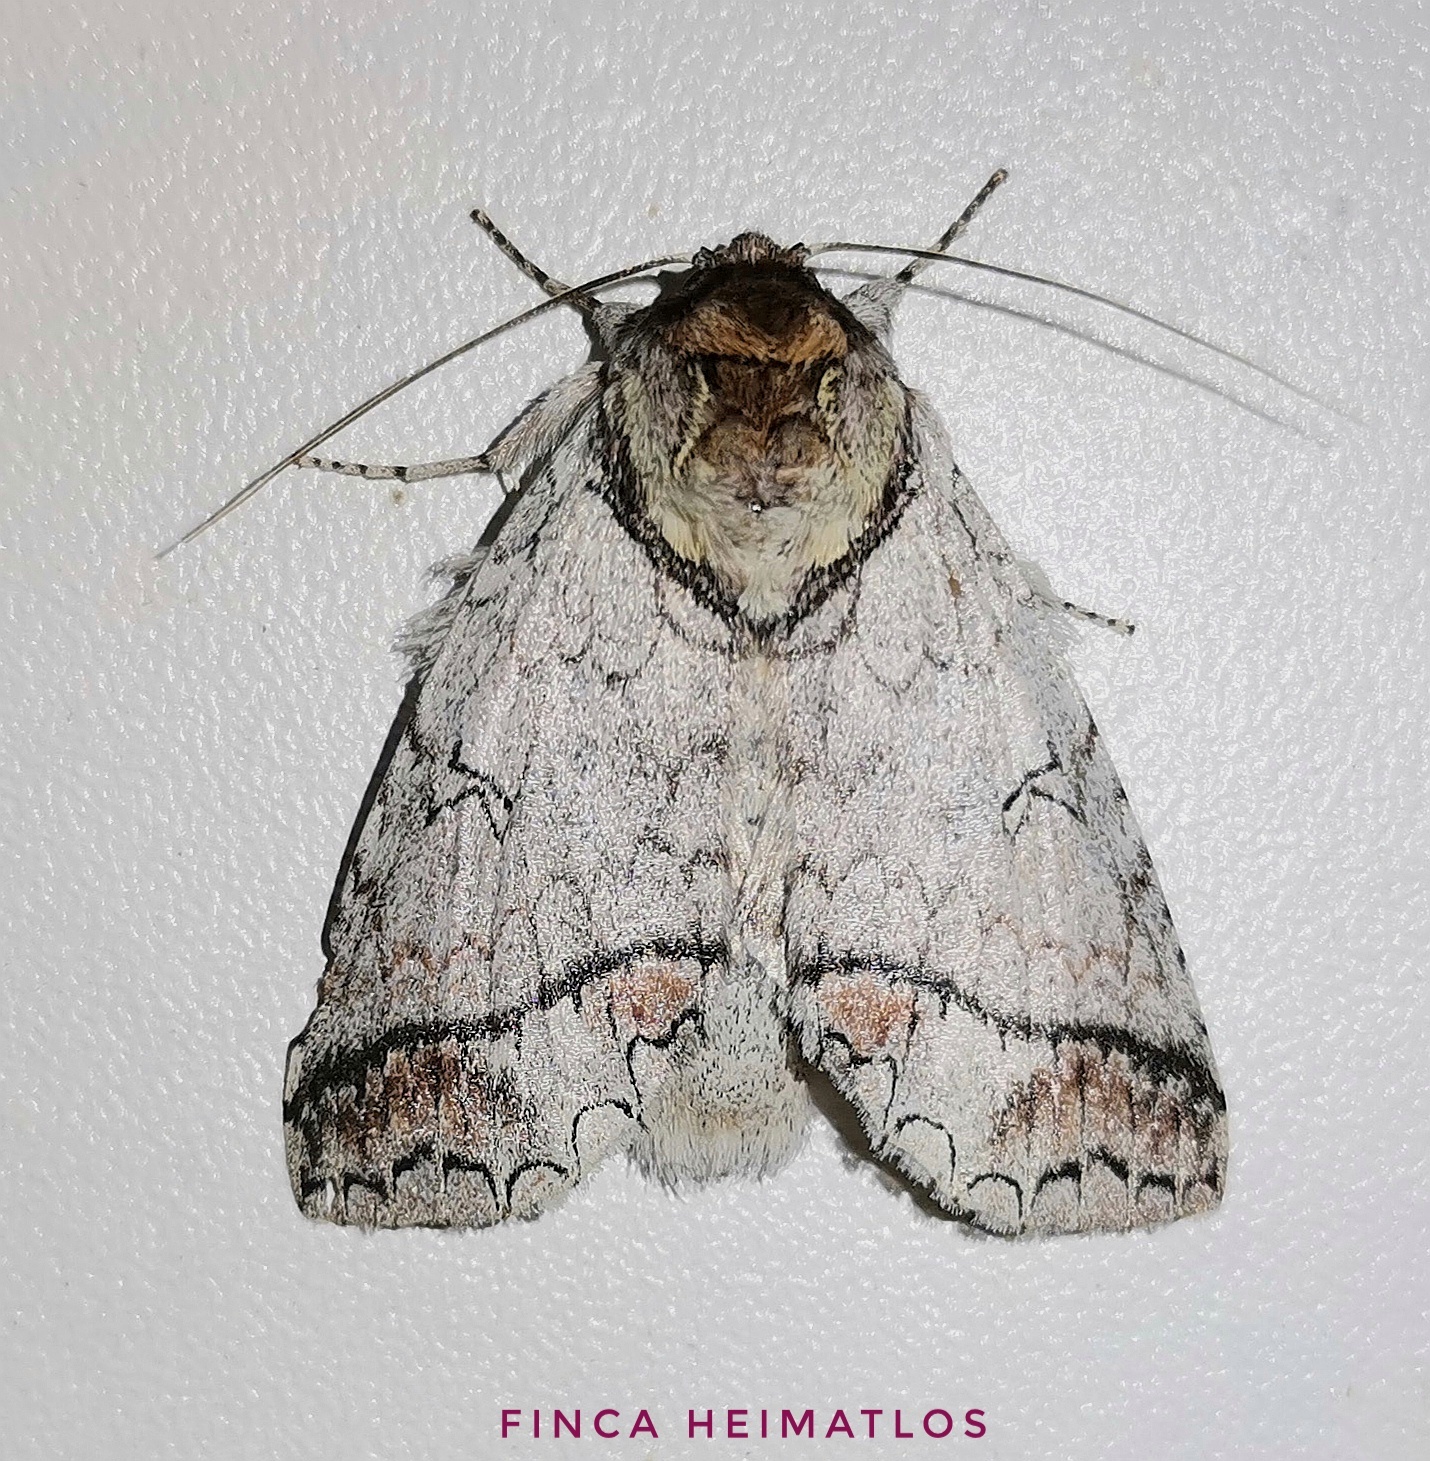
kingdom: Animalia
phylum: Arthropoda
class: Insecta
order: Diptera
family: Chloropidae
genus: Beckerella
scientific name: Beckerella
